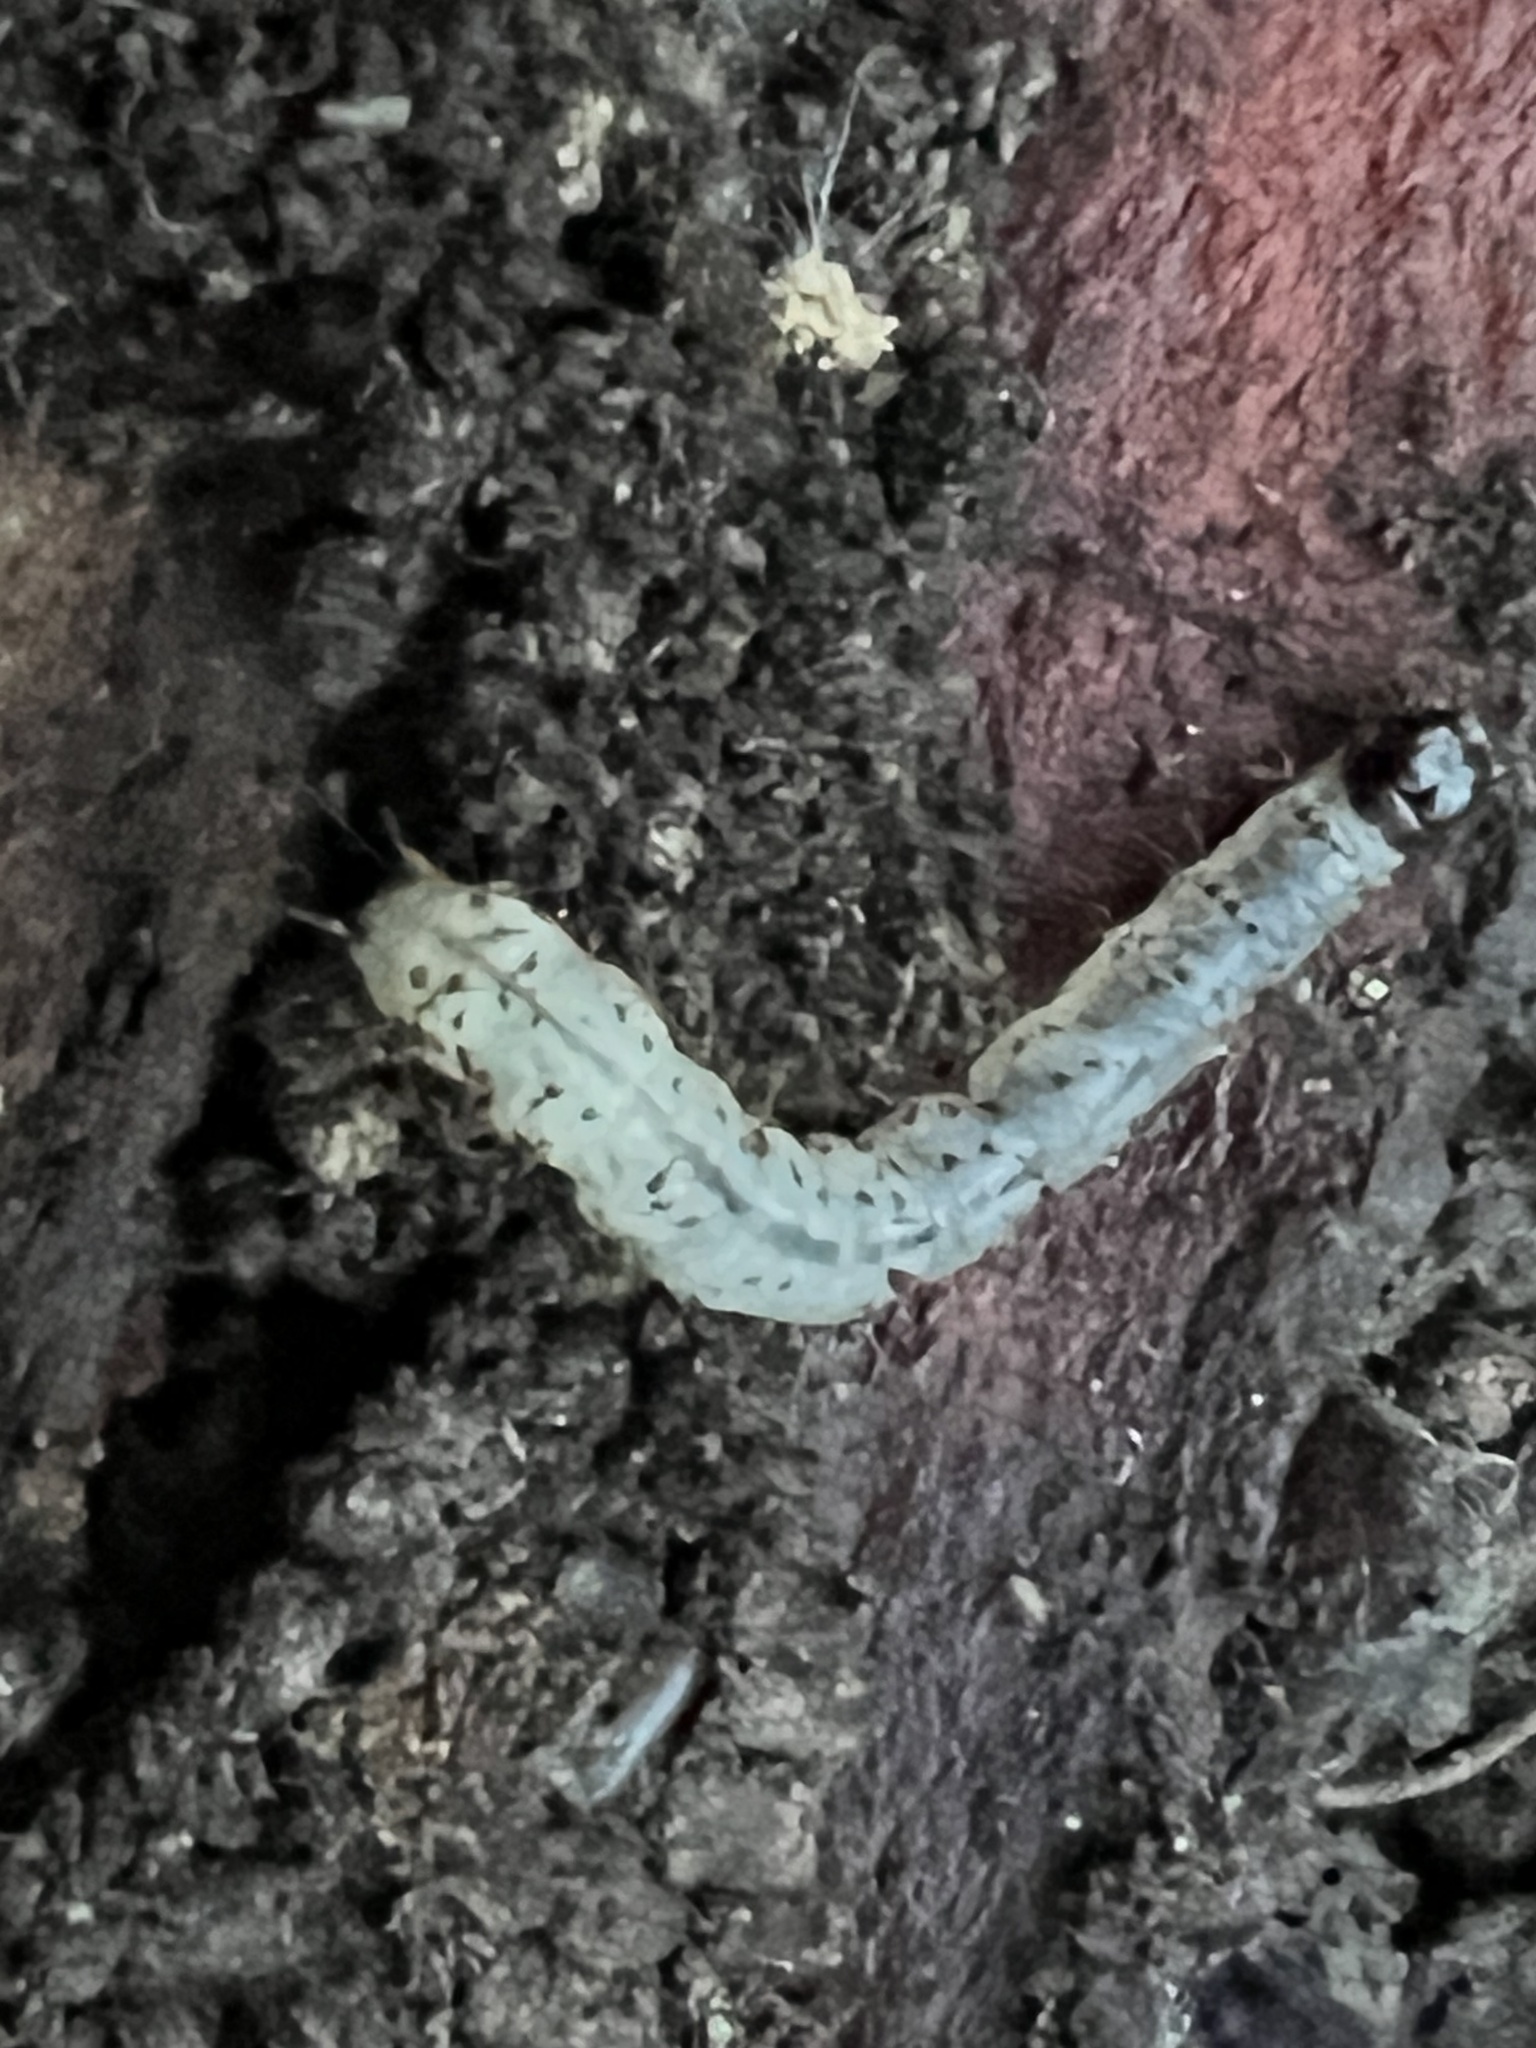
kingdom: Animalia
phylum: Arthropoda
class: Insecta
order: Lepidoptera
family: Erebidae
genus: Scolecocampa
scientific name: Scolecocampa liburna
